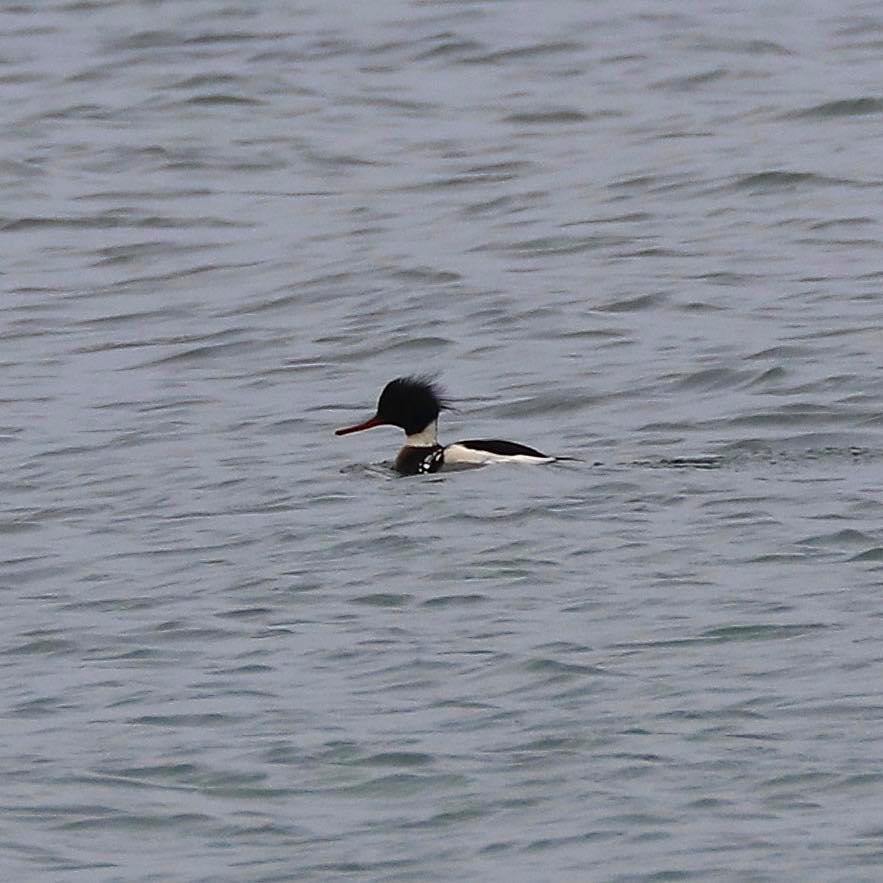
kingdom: Animalia
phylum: Chordata
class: Aves
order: Anseriformes
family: Anatidae
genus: Mergus
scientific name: Mergus serrator
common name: Red-breasted merganser
